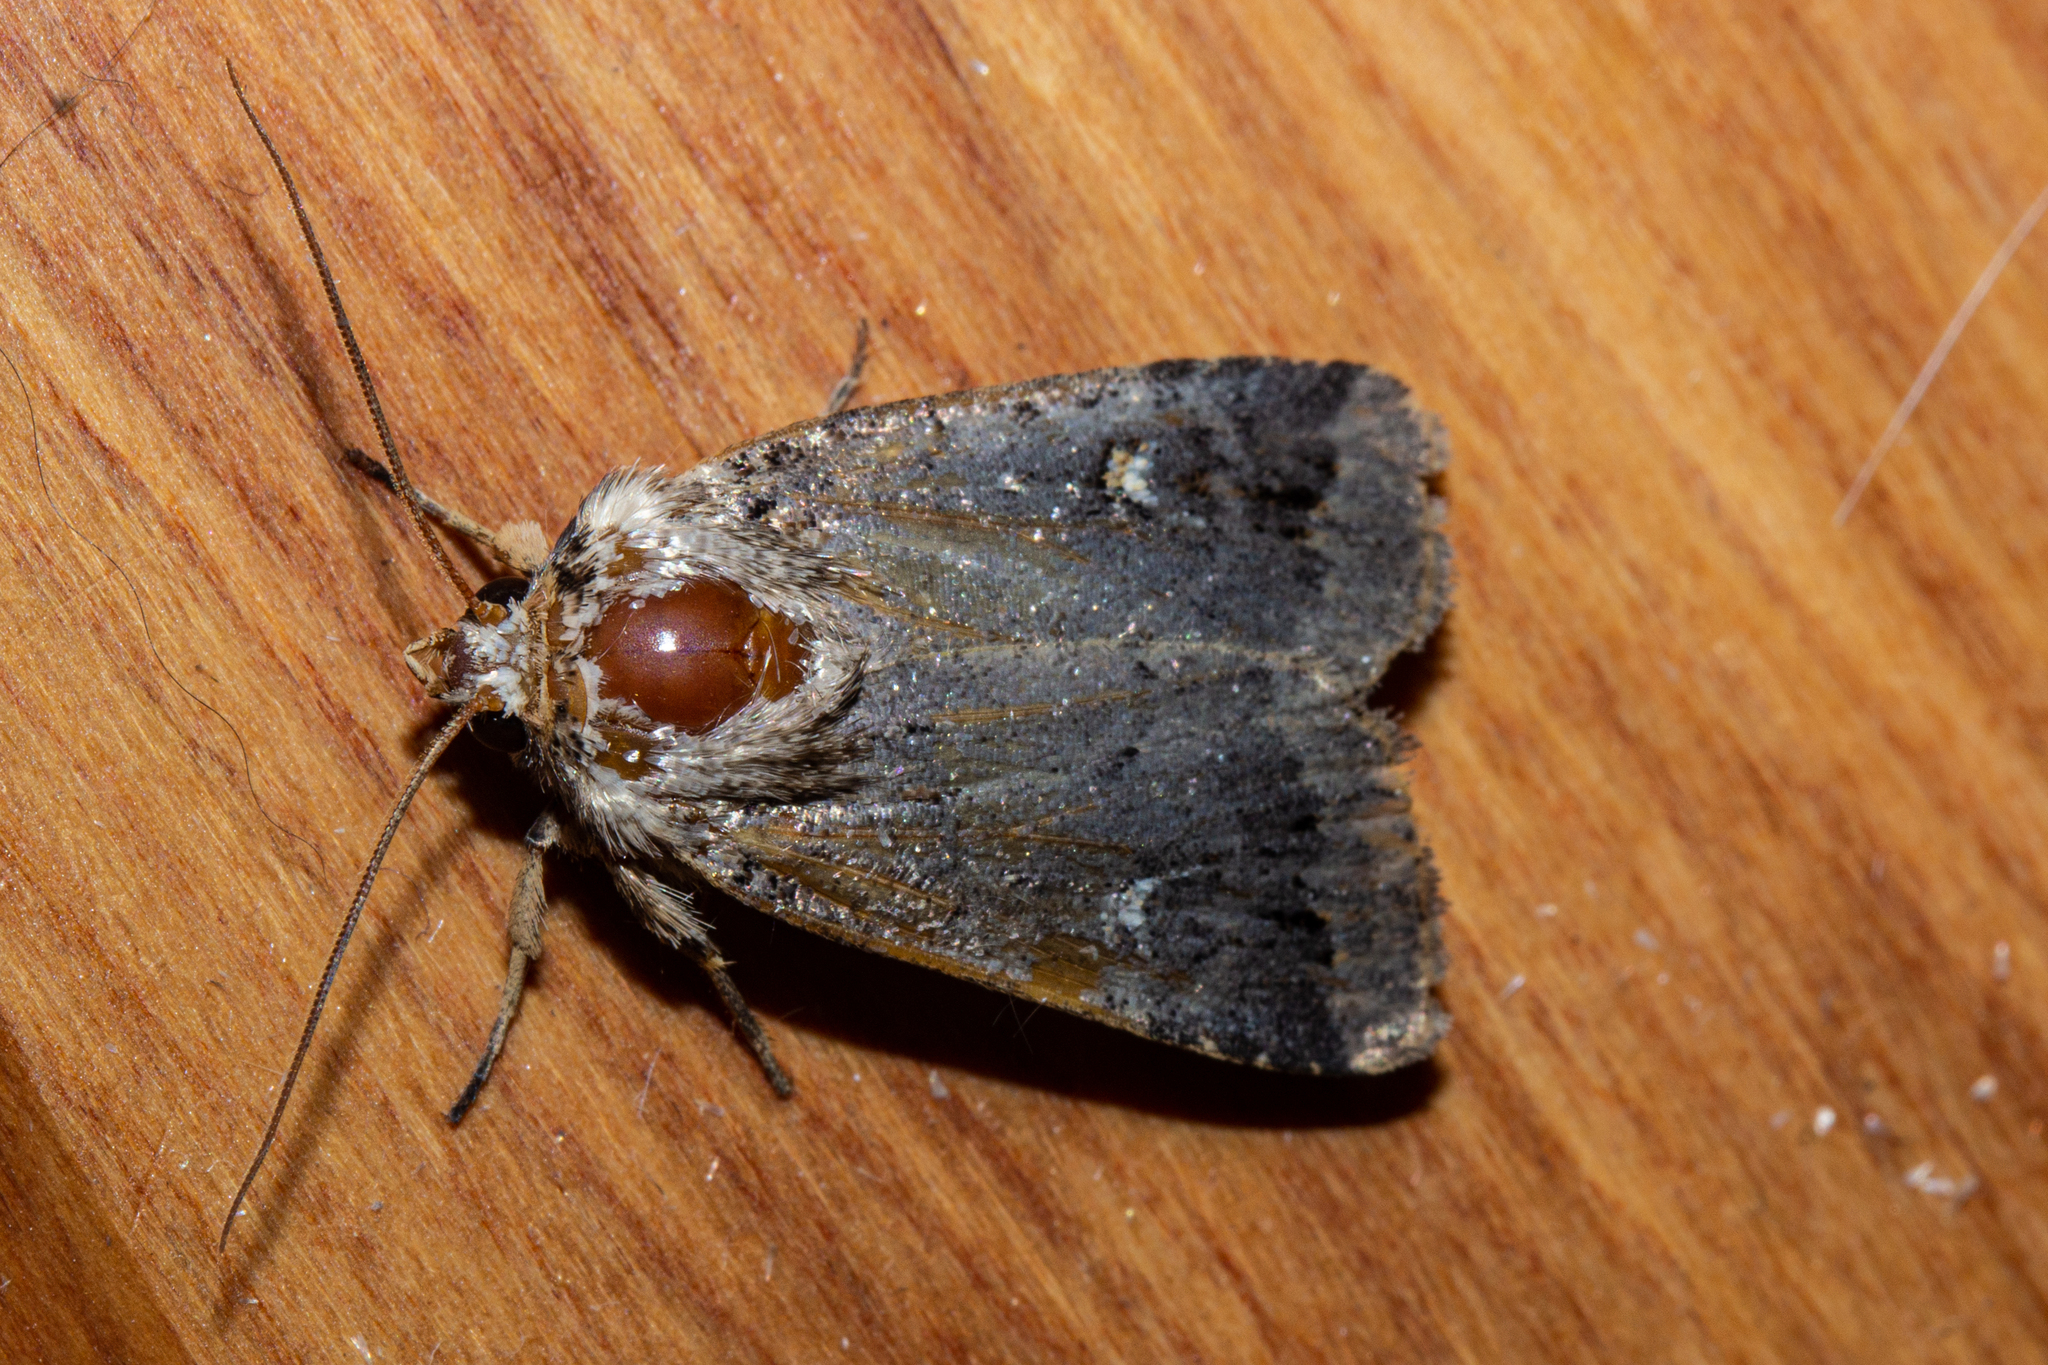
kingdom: Animalia
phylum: Arthropoda
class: Insecta
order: Lepidoptera
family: Noctuidae
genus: Proteuxoa
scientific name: Proteuxoa tetronycha
